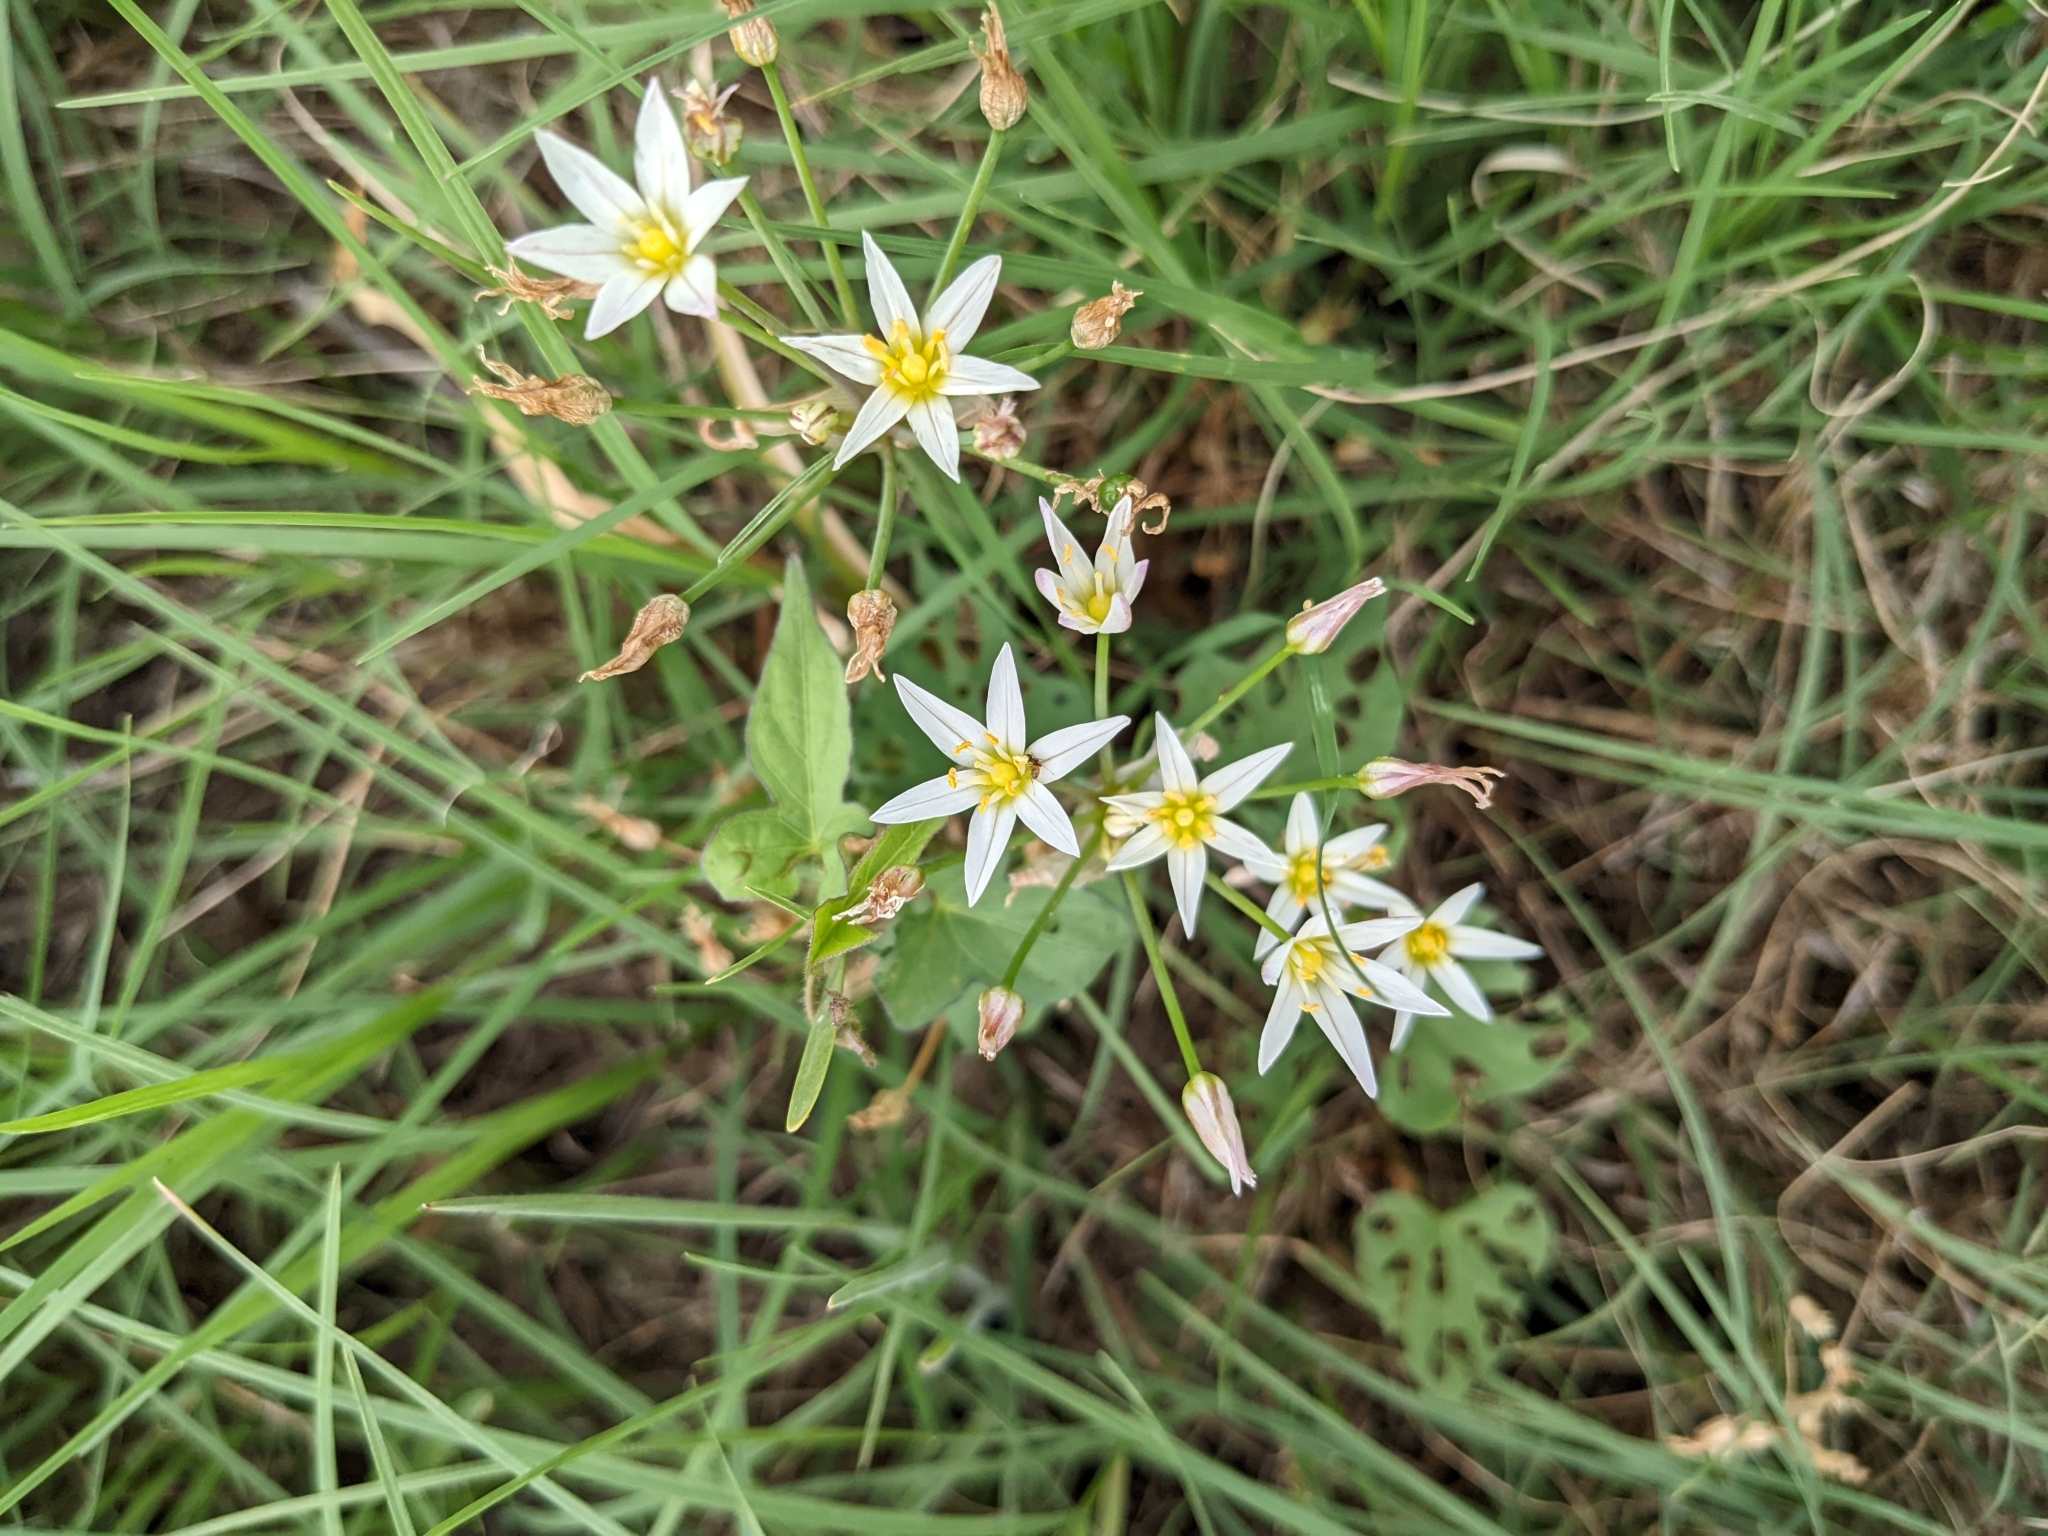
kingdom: Plantae
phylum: Tracheophyta
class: Liliopsida
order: Asparagales
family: Amaryllidaceae
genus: Nothoscordum
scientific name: Nothoscordum bivalve
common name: Crow-poison
